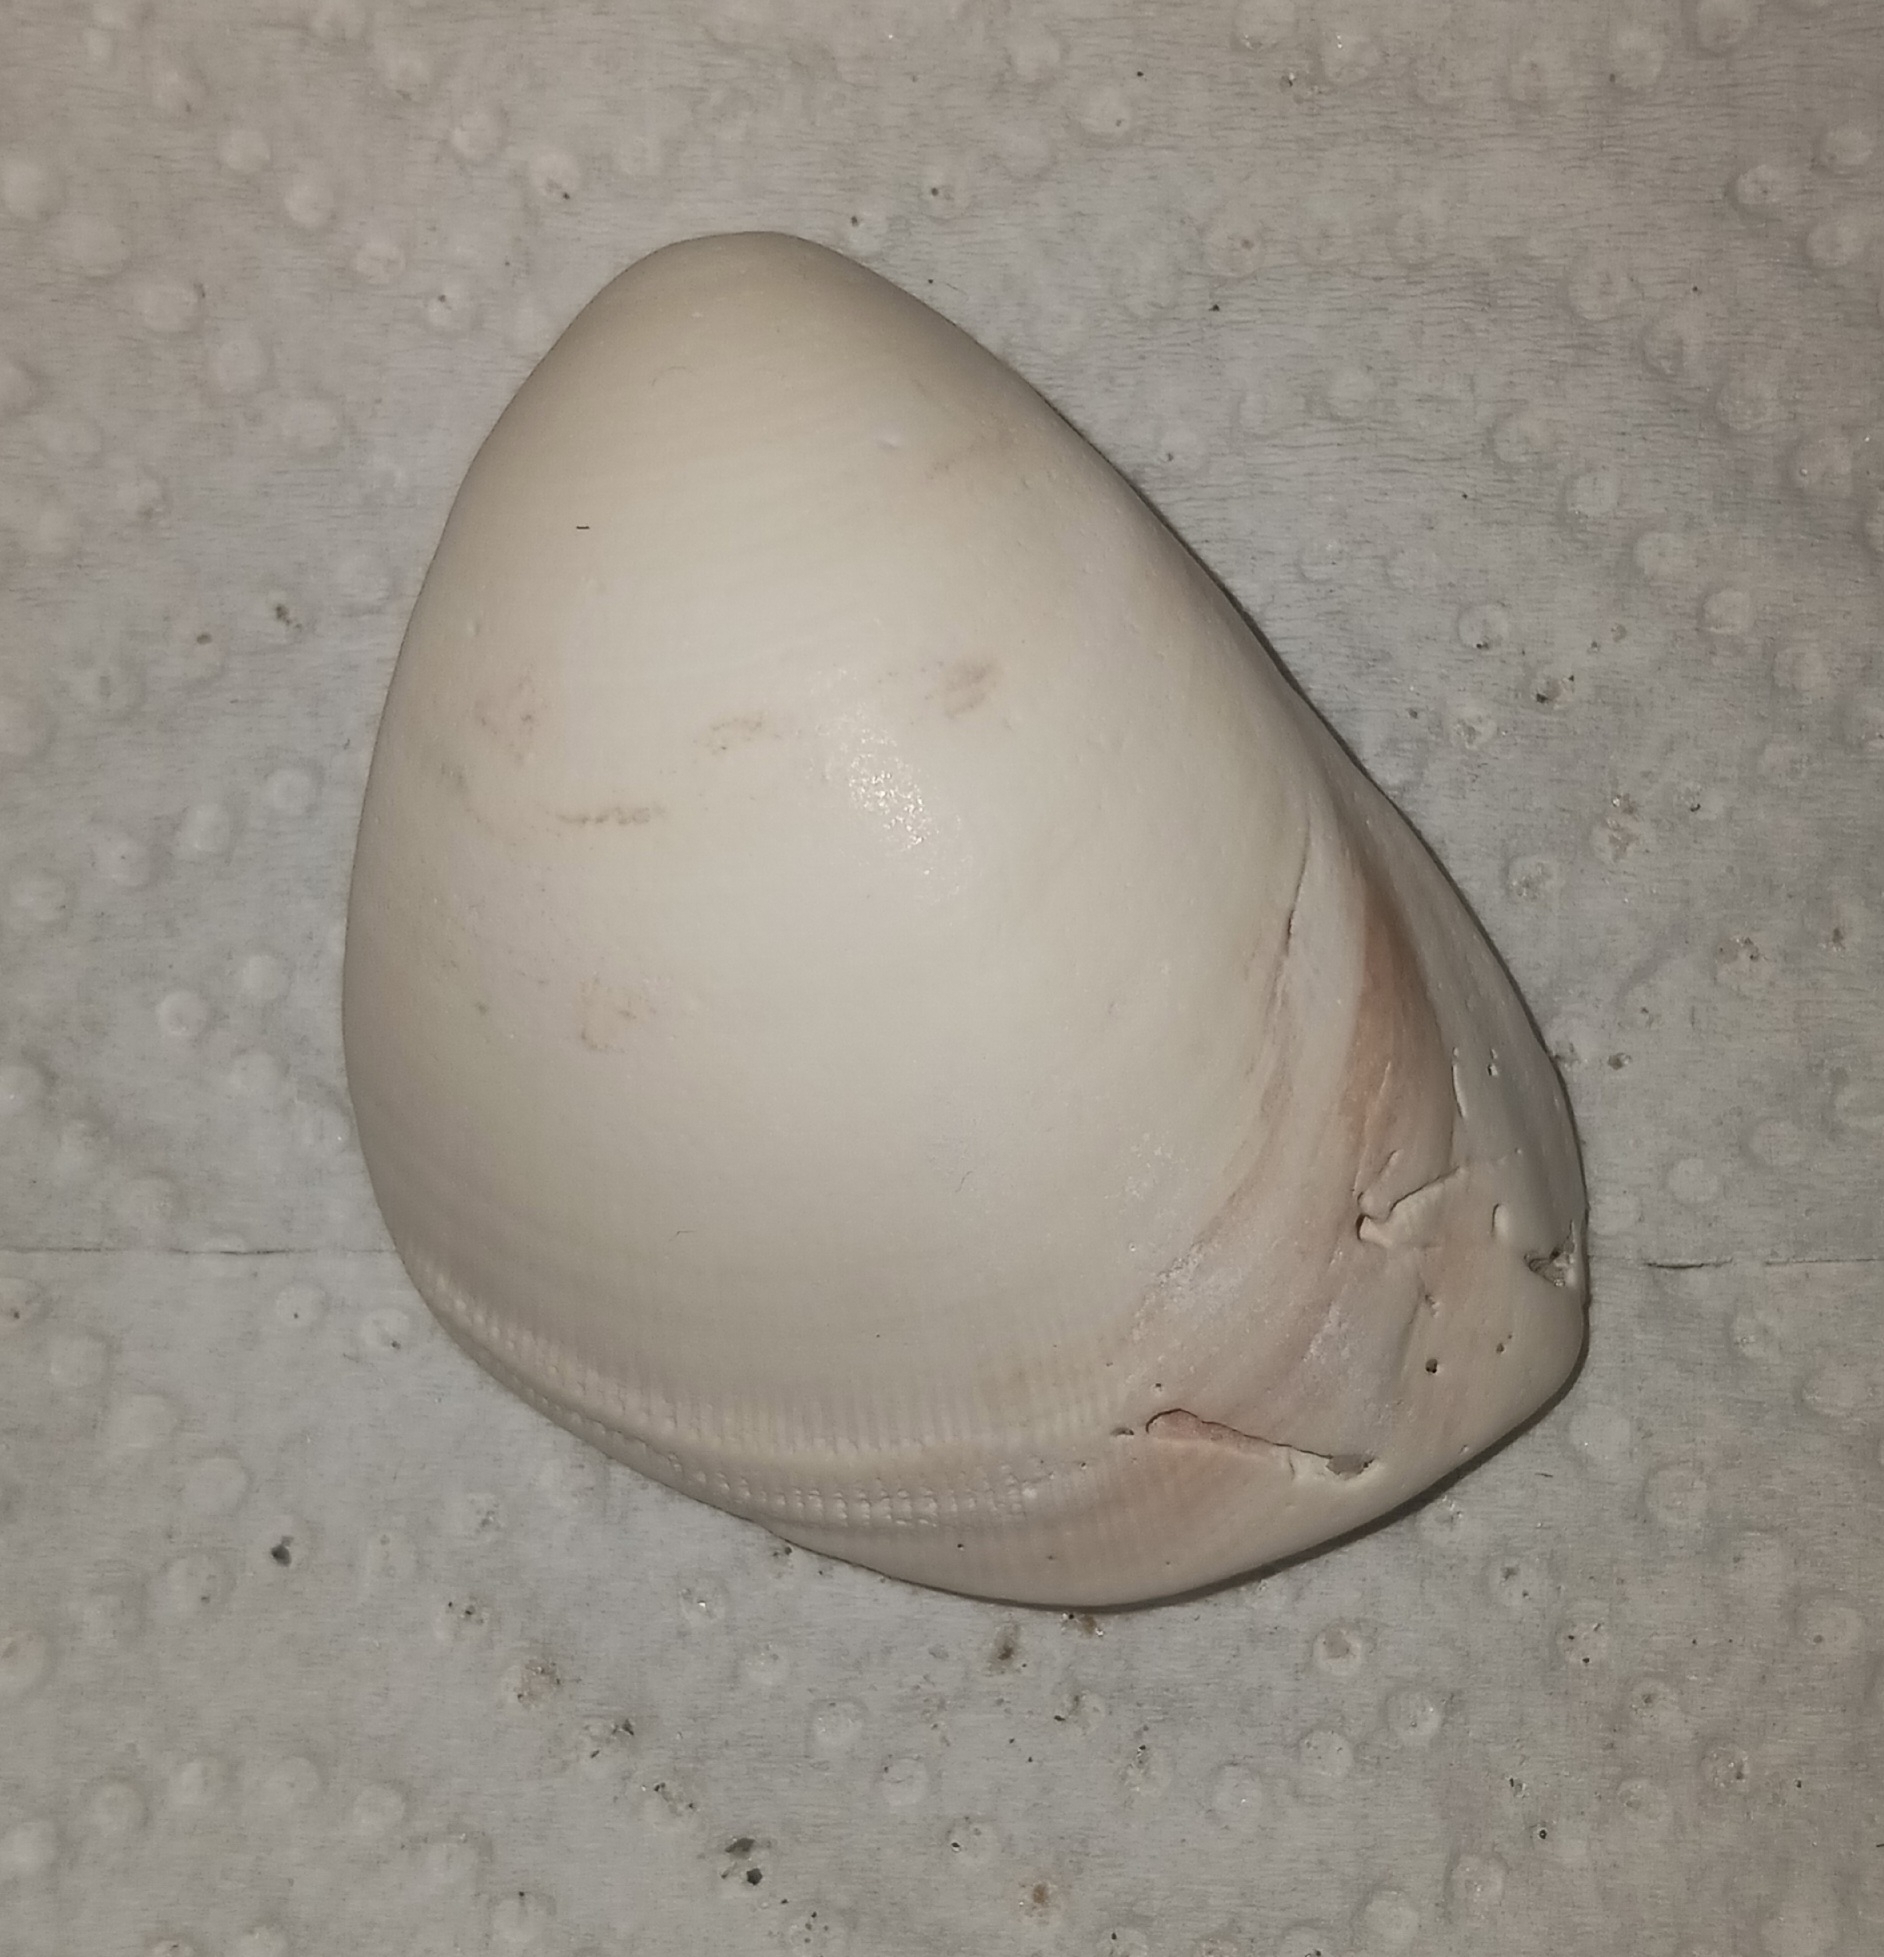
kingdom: Animalia
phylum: Mollusca
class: Bivalvia
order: Venerida
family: Veneridae
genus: Mercenaria
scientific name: Mercenaria mercenaria
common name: American hard-shelled clam
